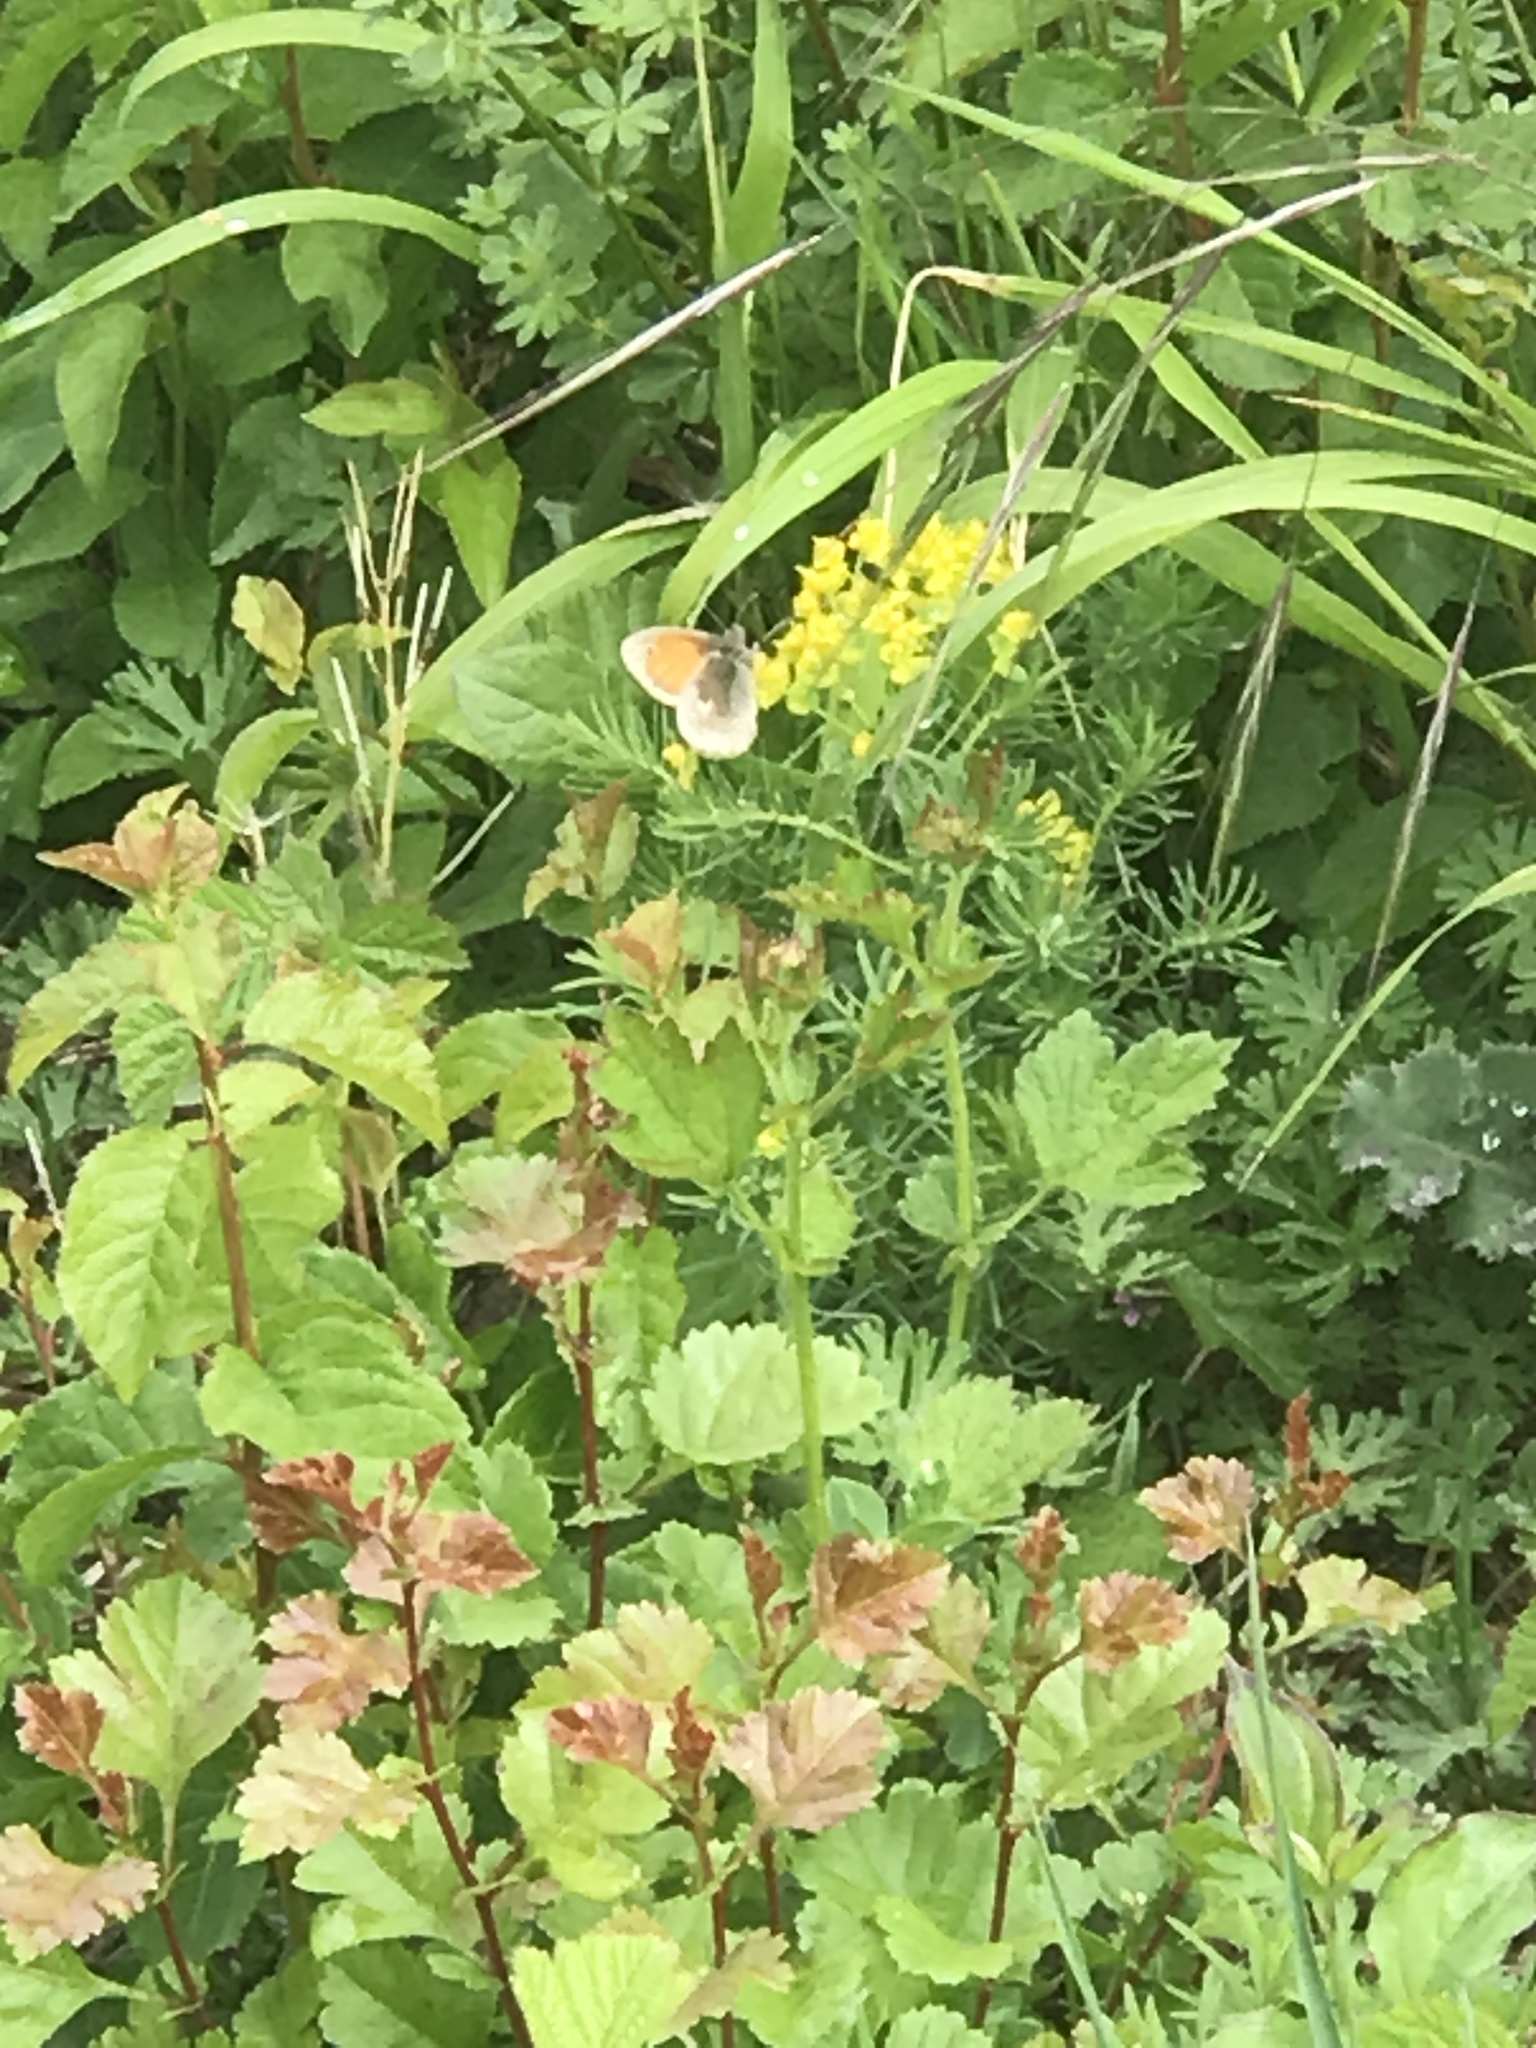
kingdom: Animalia
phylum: Arthropoda
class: Insecta
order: Lepidoptera
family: Nymphalidae
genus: Coenonympha
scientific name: Coenonympha pamphilus
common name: Small heath
